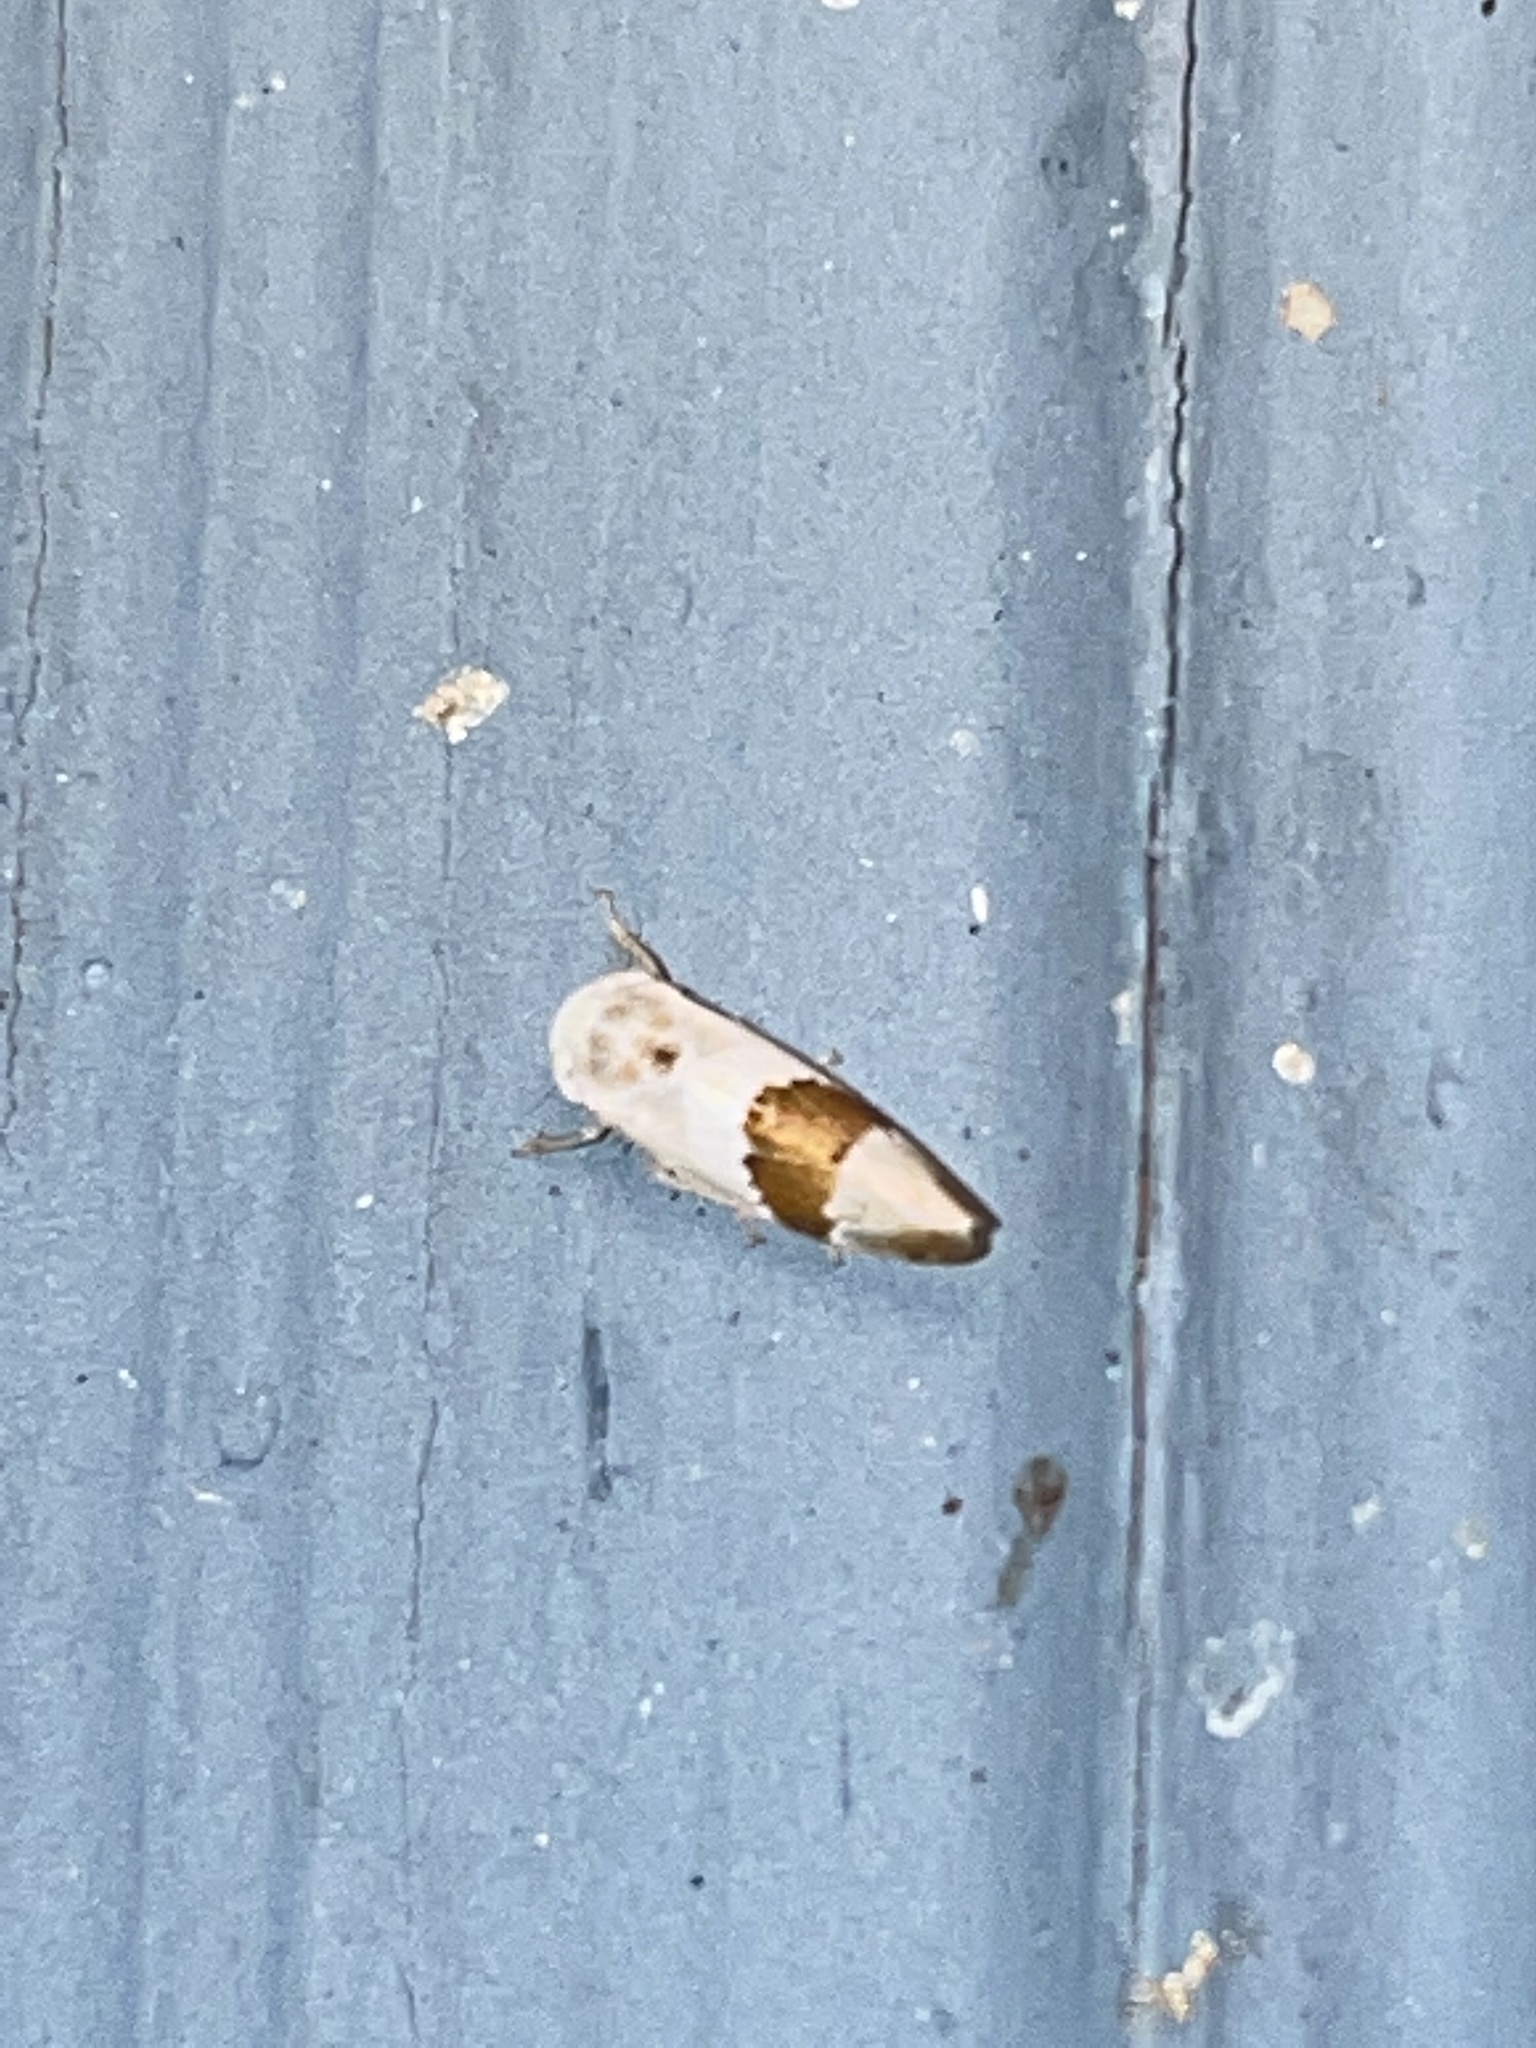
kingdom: Animalia
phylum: Arthropoda
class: Insecta
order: Hemiptera
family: Cicadellidae
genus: Norvellina
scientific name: Norvellina seminuda
